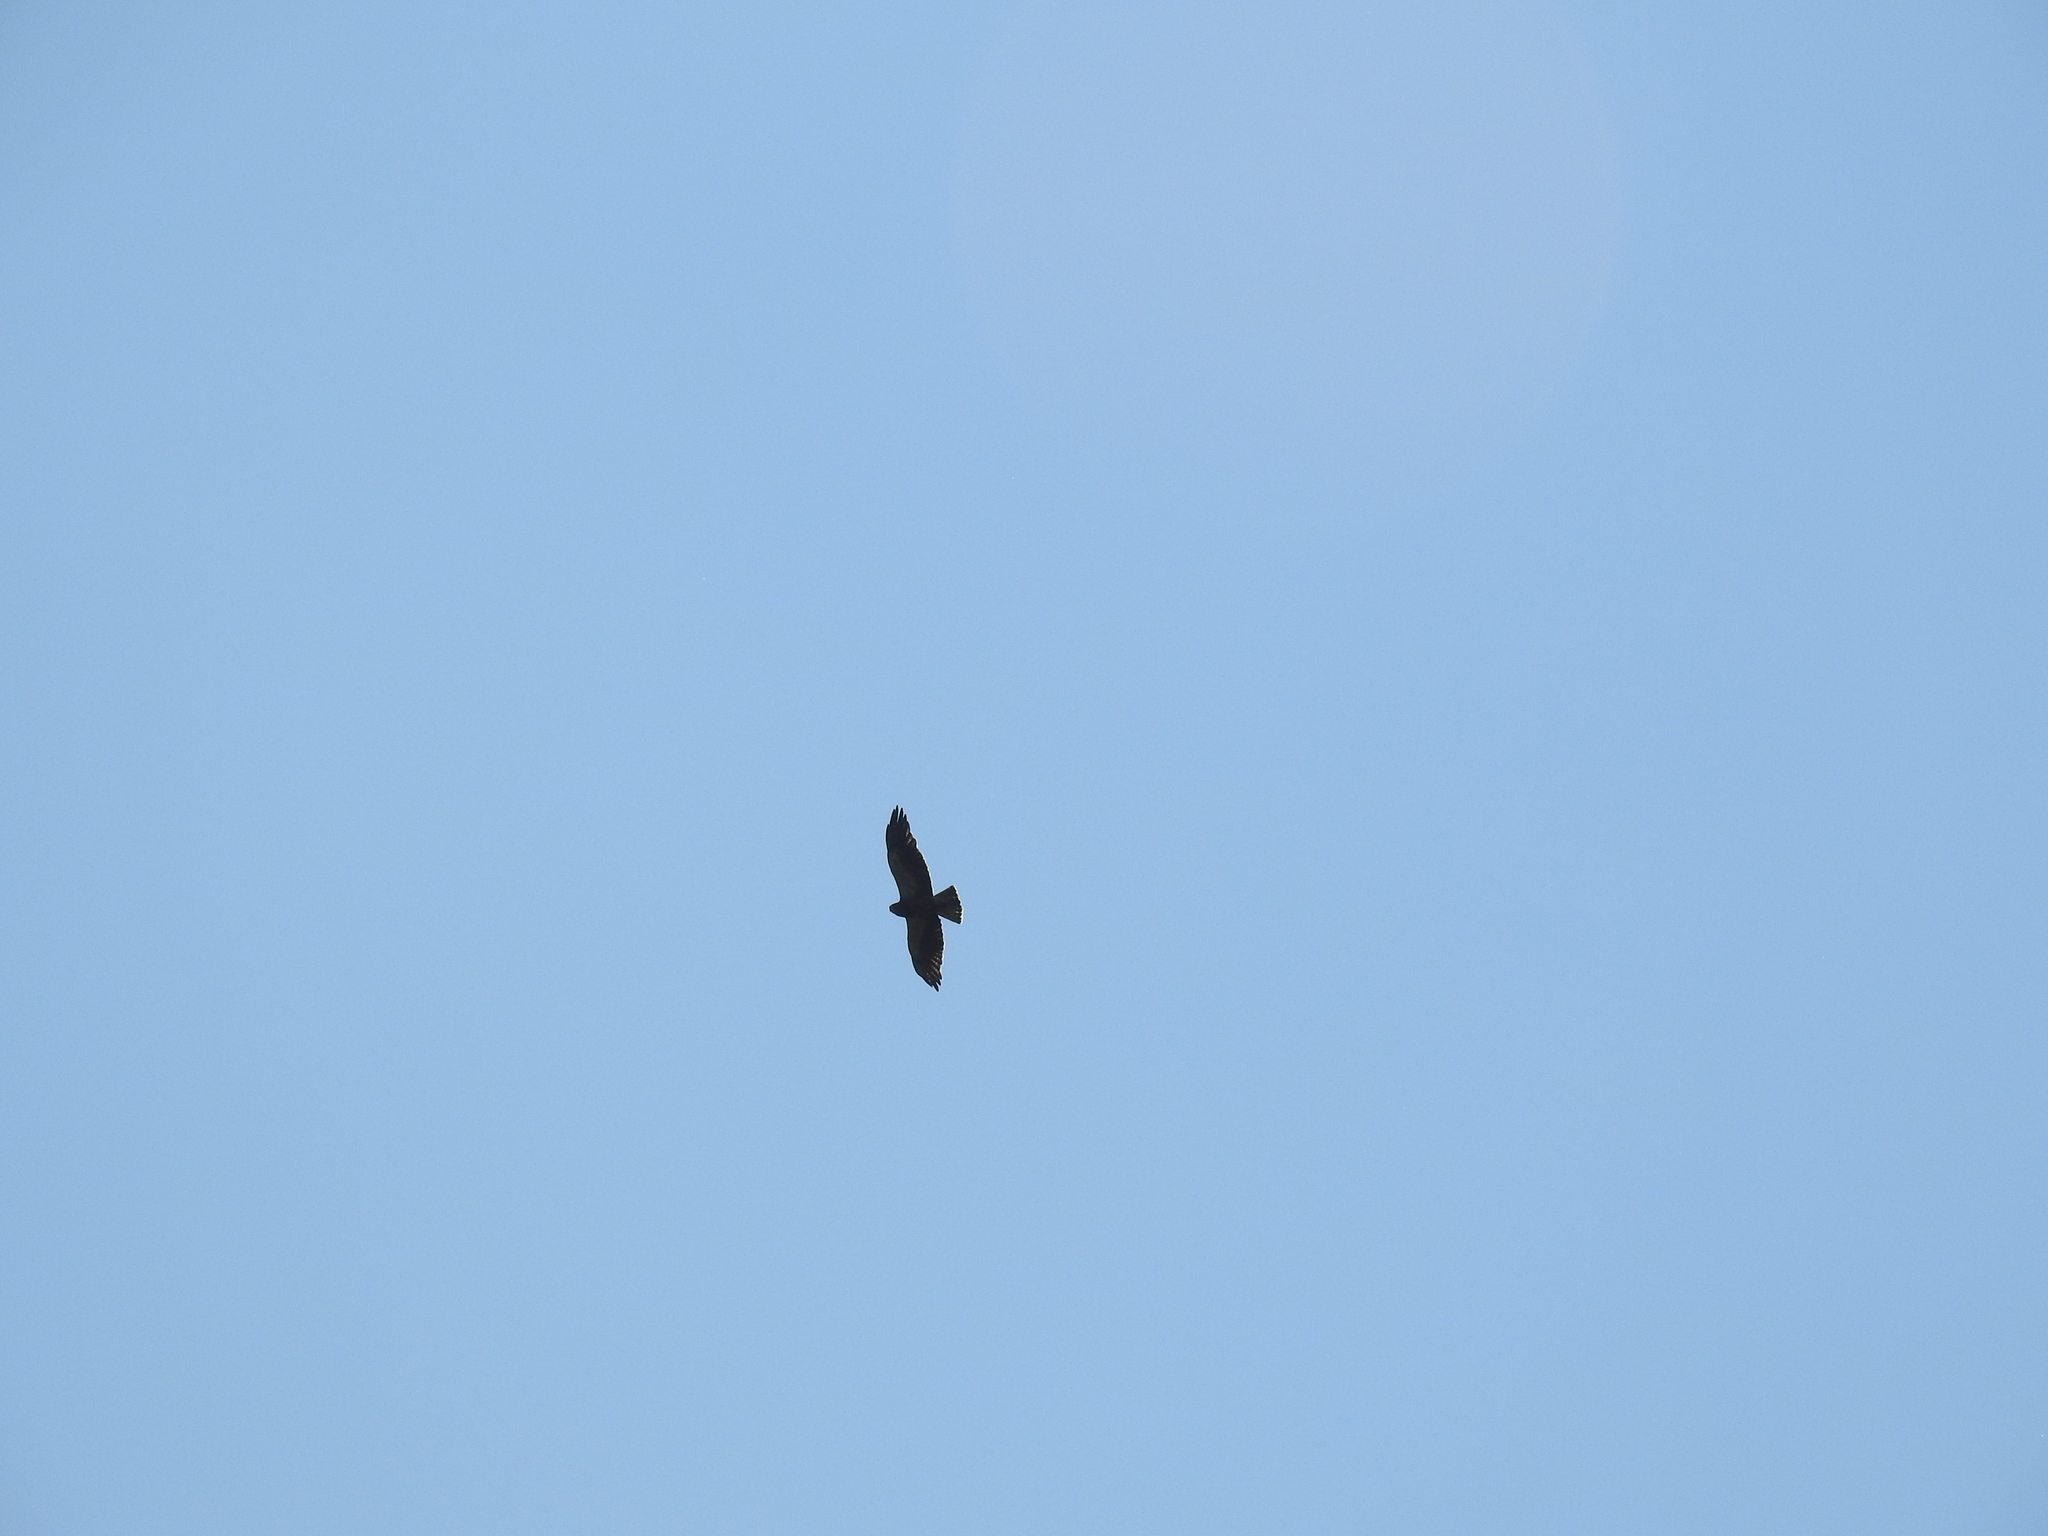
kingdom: Animalia
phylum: Chordata
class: Aves
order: Accipitriformes
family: Accipitridae
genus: Buteo
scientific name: Buteo swainsoni
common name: Swainson's hawk
